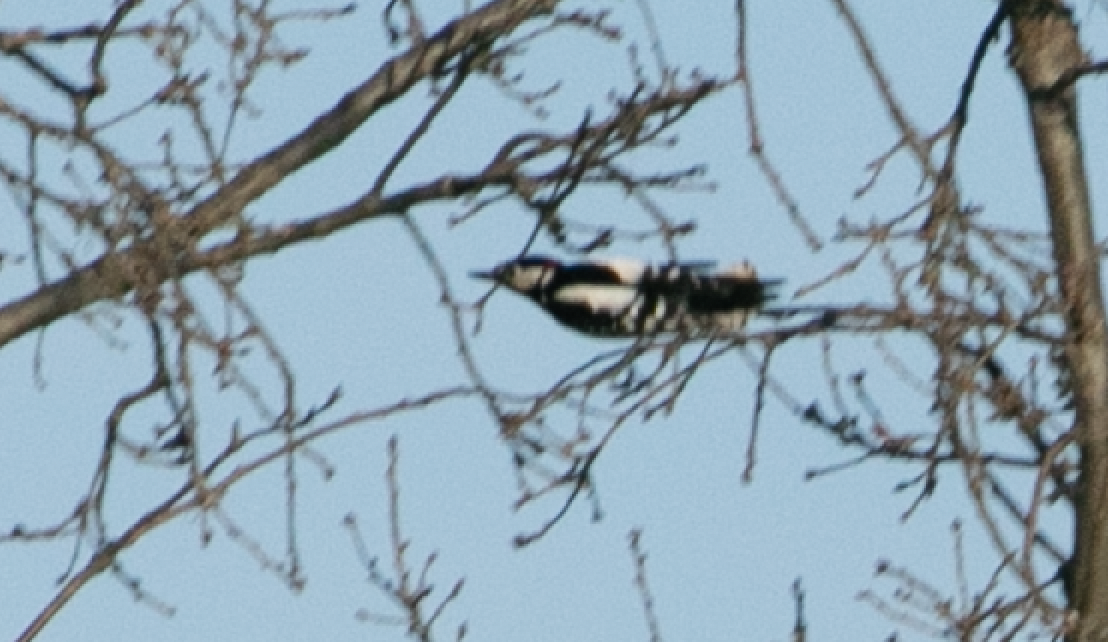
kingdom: Animalia
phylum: Chordata
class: Aves
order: Piciformes
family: Picidae
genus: Dendrocopos
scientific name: Dendrocopos major
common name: Great spotted woodpecker
